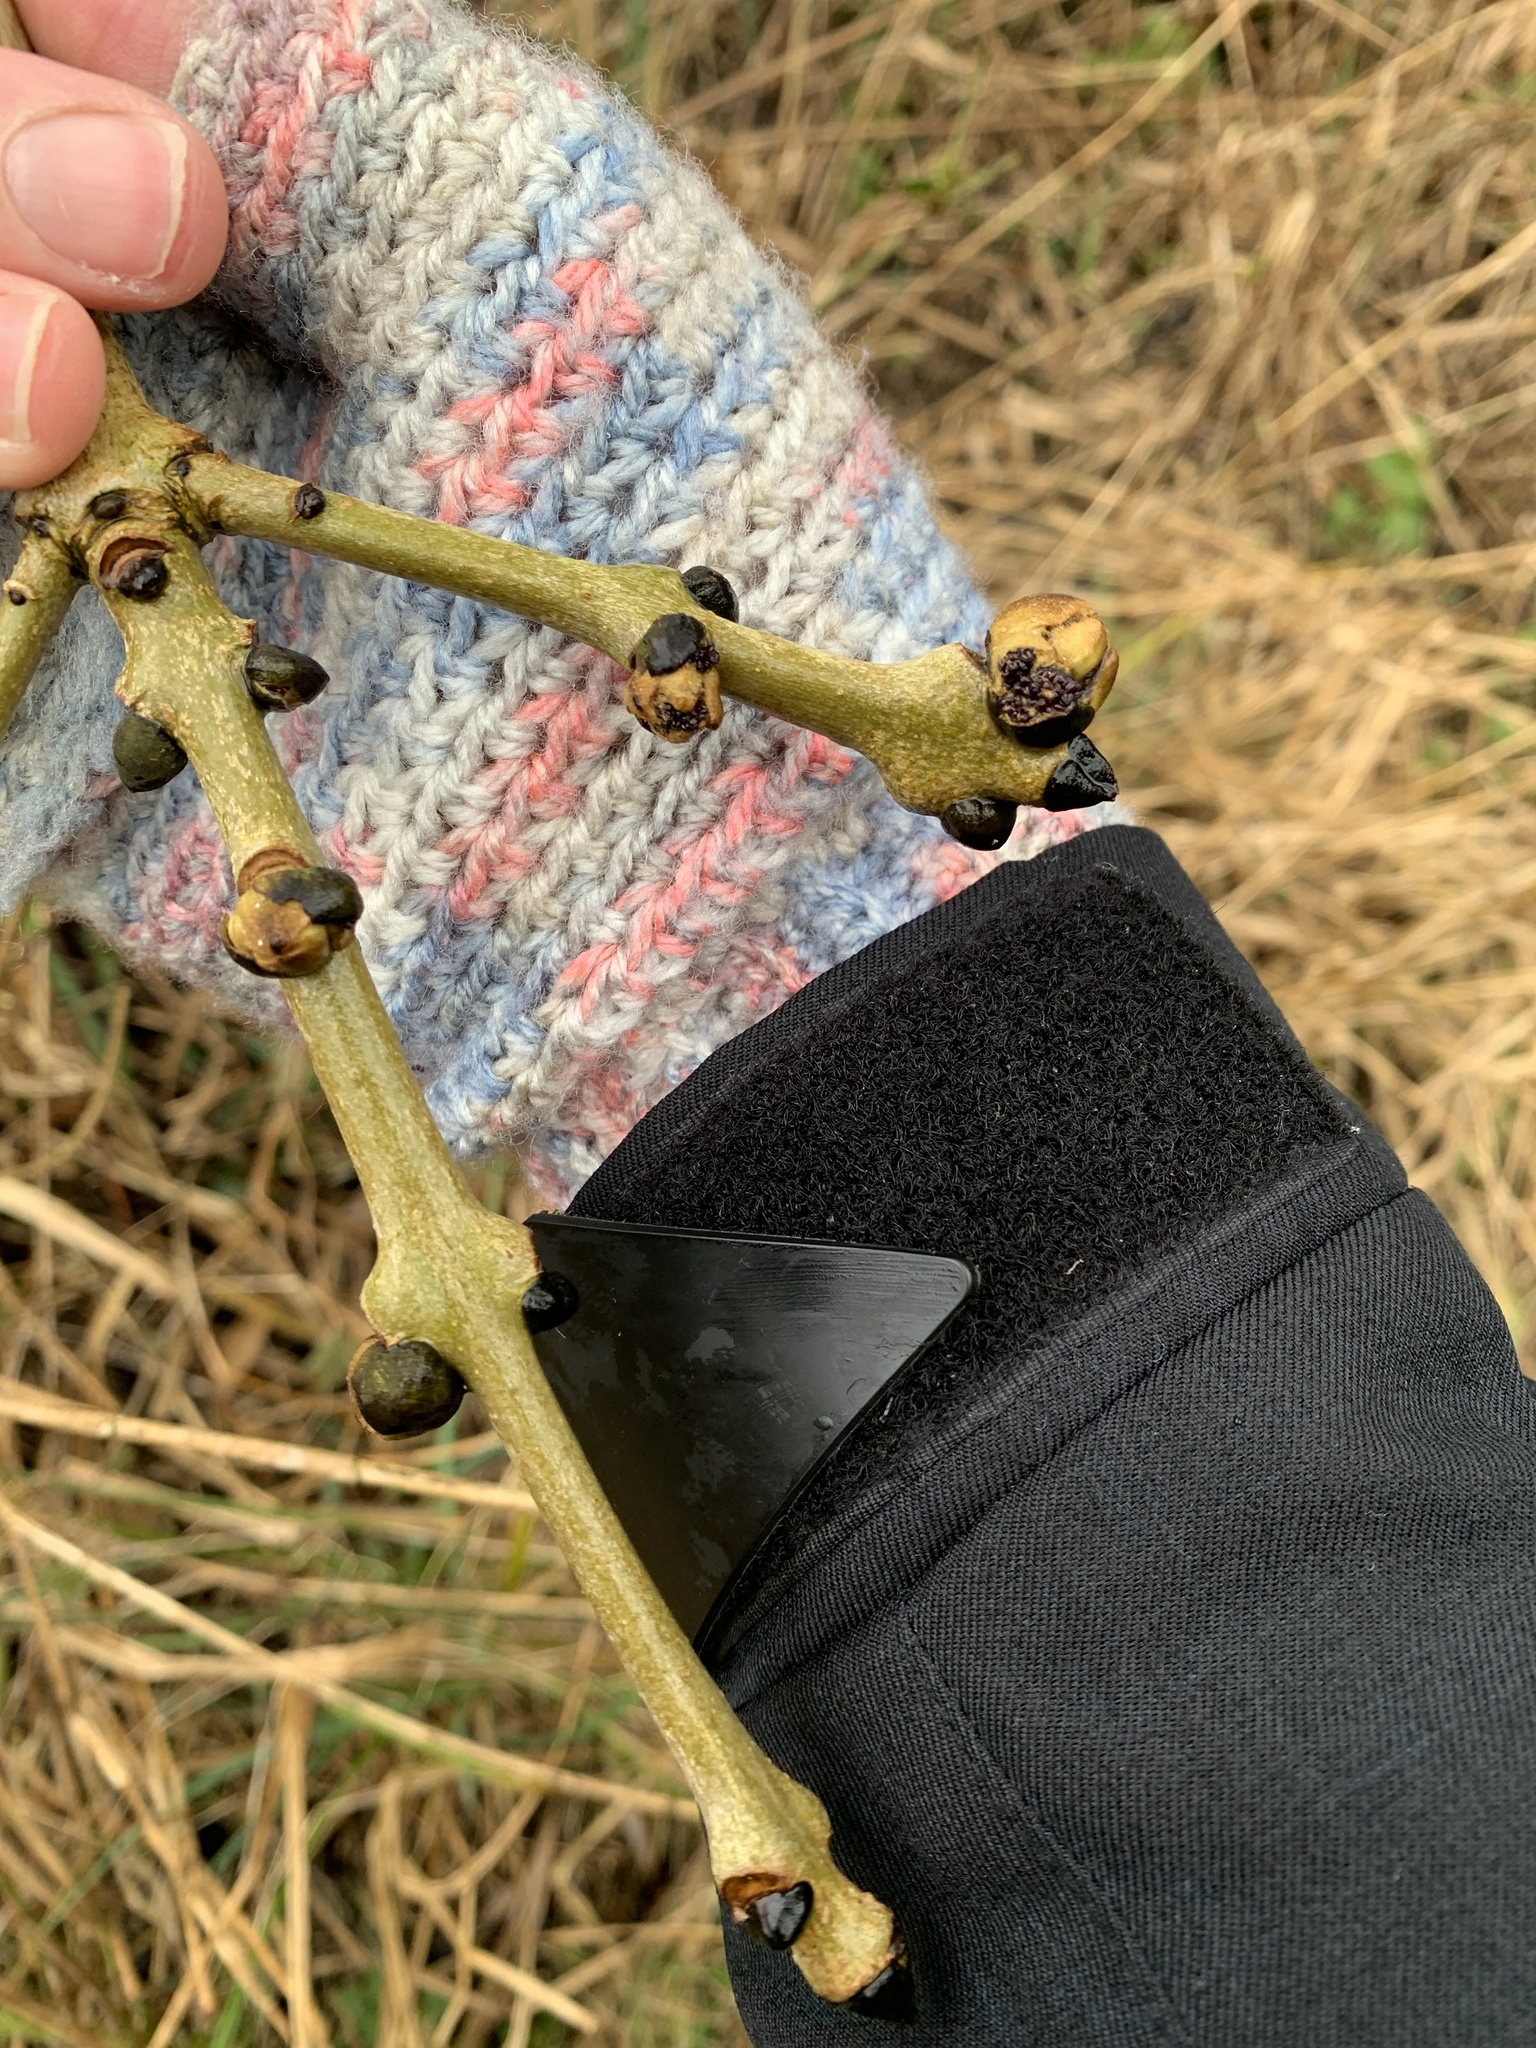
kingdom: Plantae
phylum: Tracheophyta
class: Magnoliopsida
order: Lamiales
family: Oleaceae
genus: Fraxinus
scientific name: Fraxinus excelsior
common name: European ash
